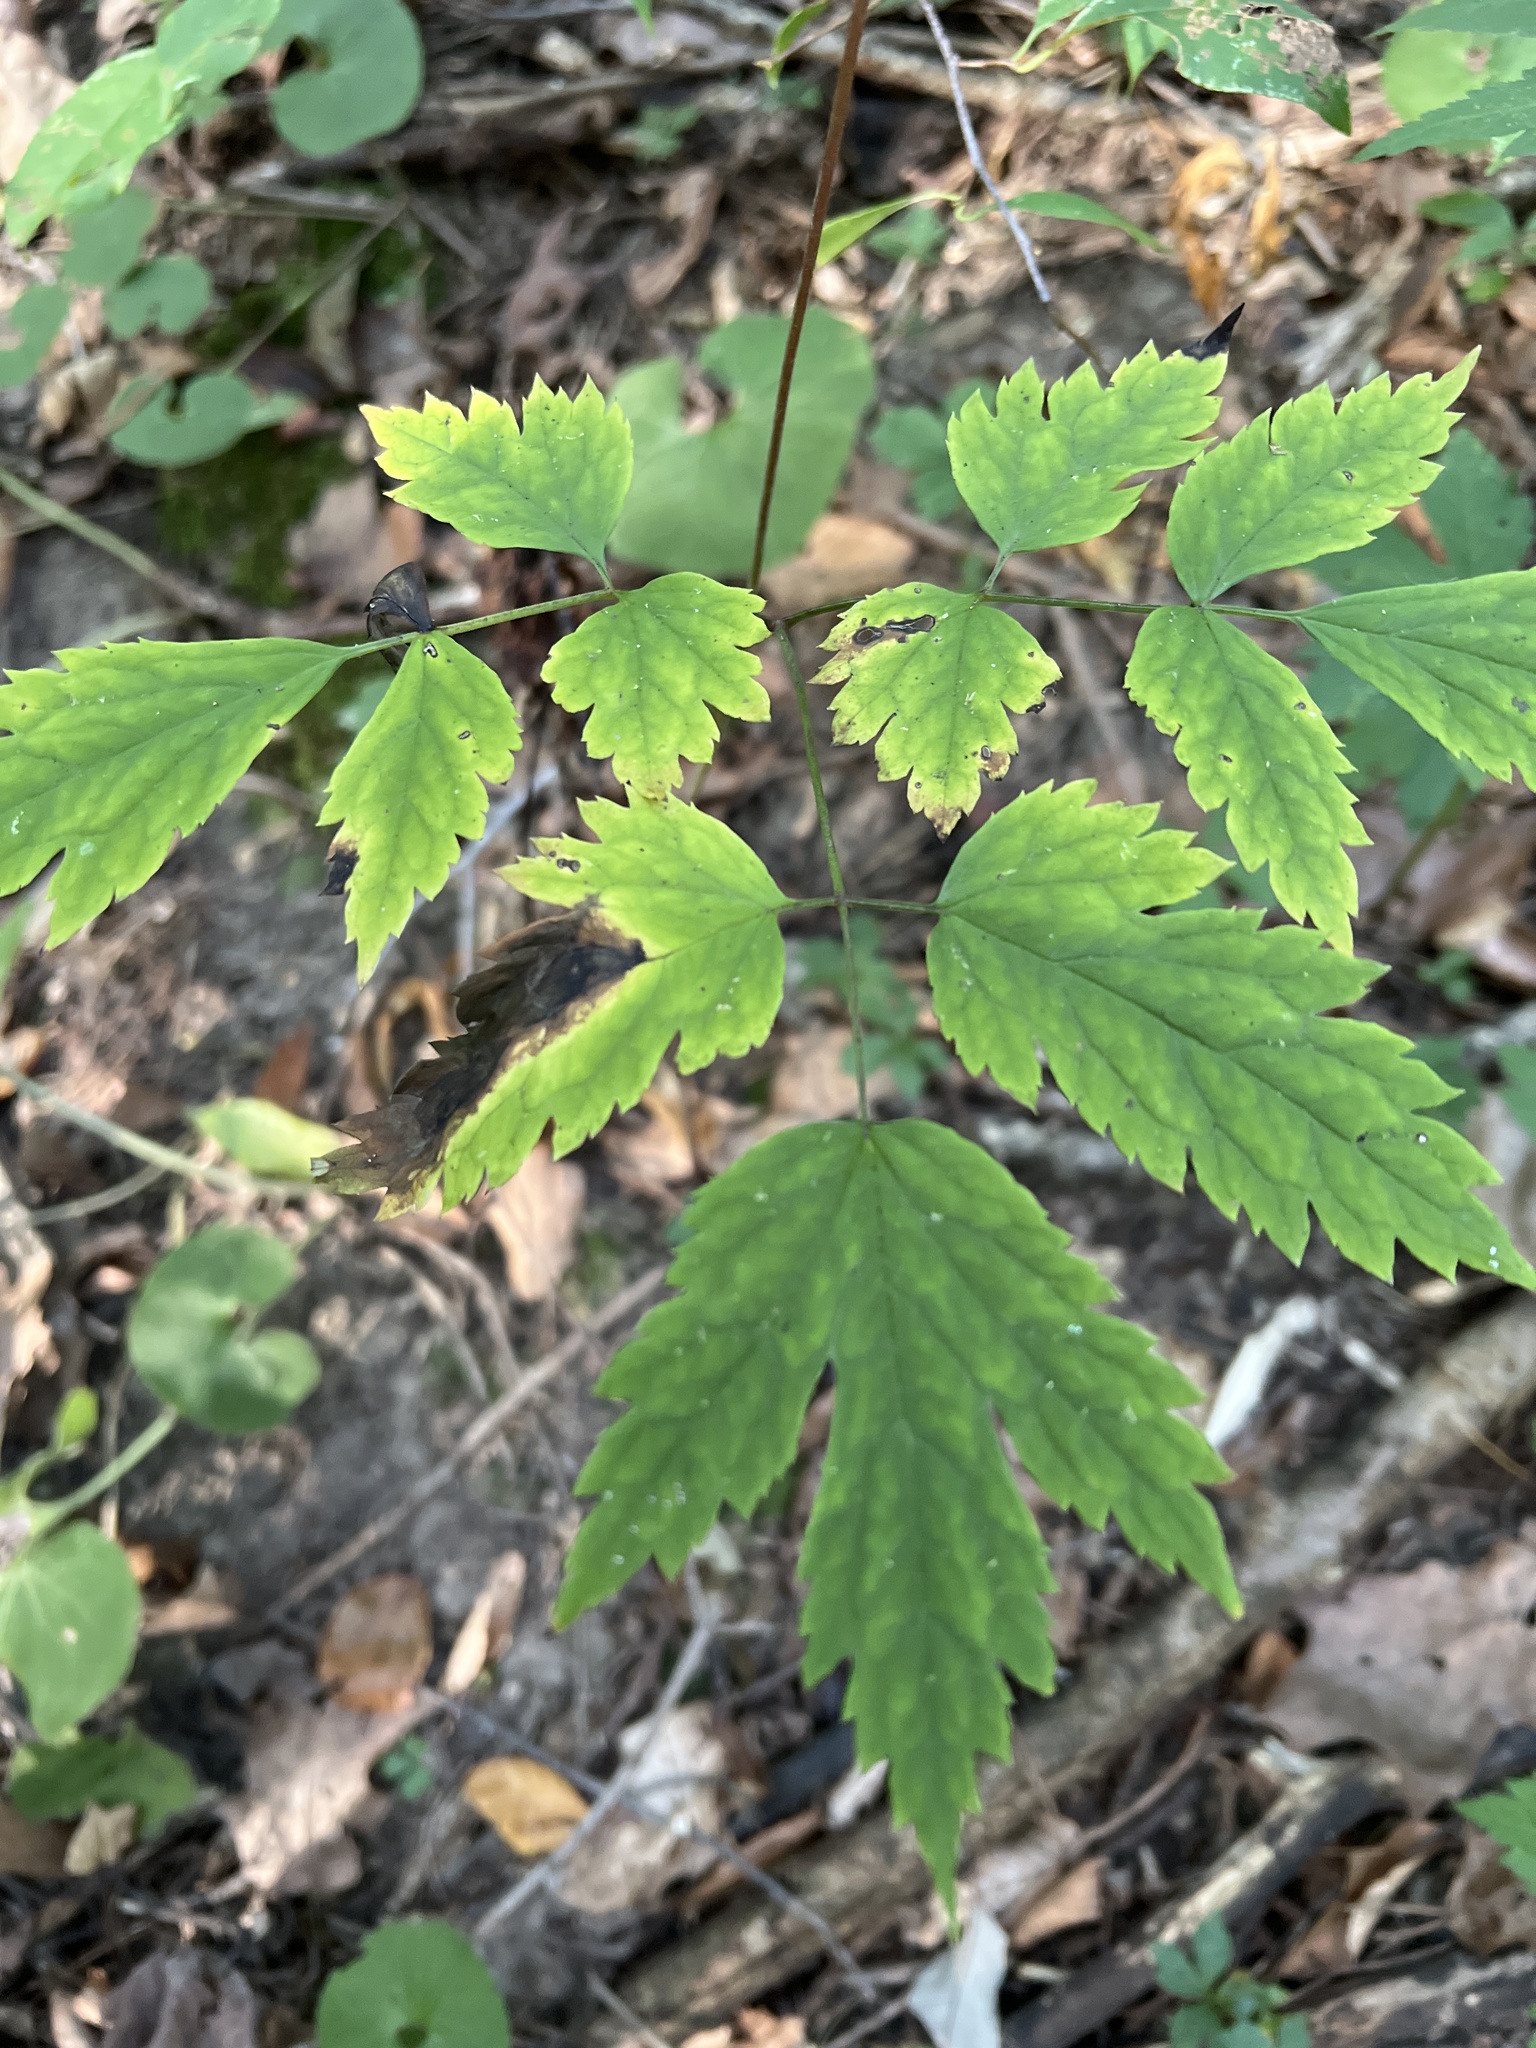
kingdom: Plantae
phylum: Tracheophyta
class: Magnoliopsida
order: Ranunculales
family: Ranunculaceae
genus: Actaea
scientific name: Actaea pachypoda
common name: Doll's-eyes
